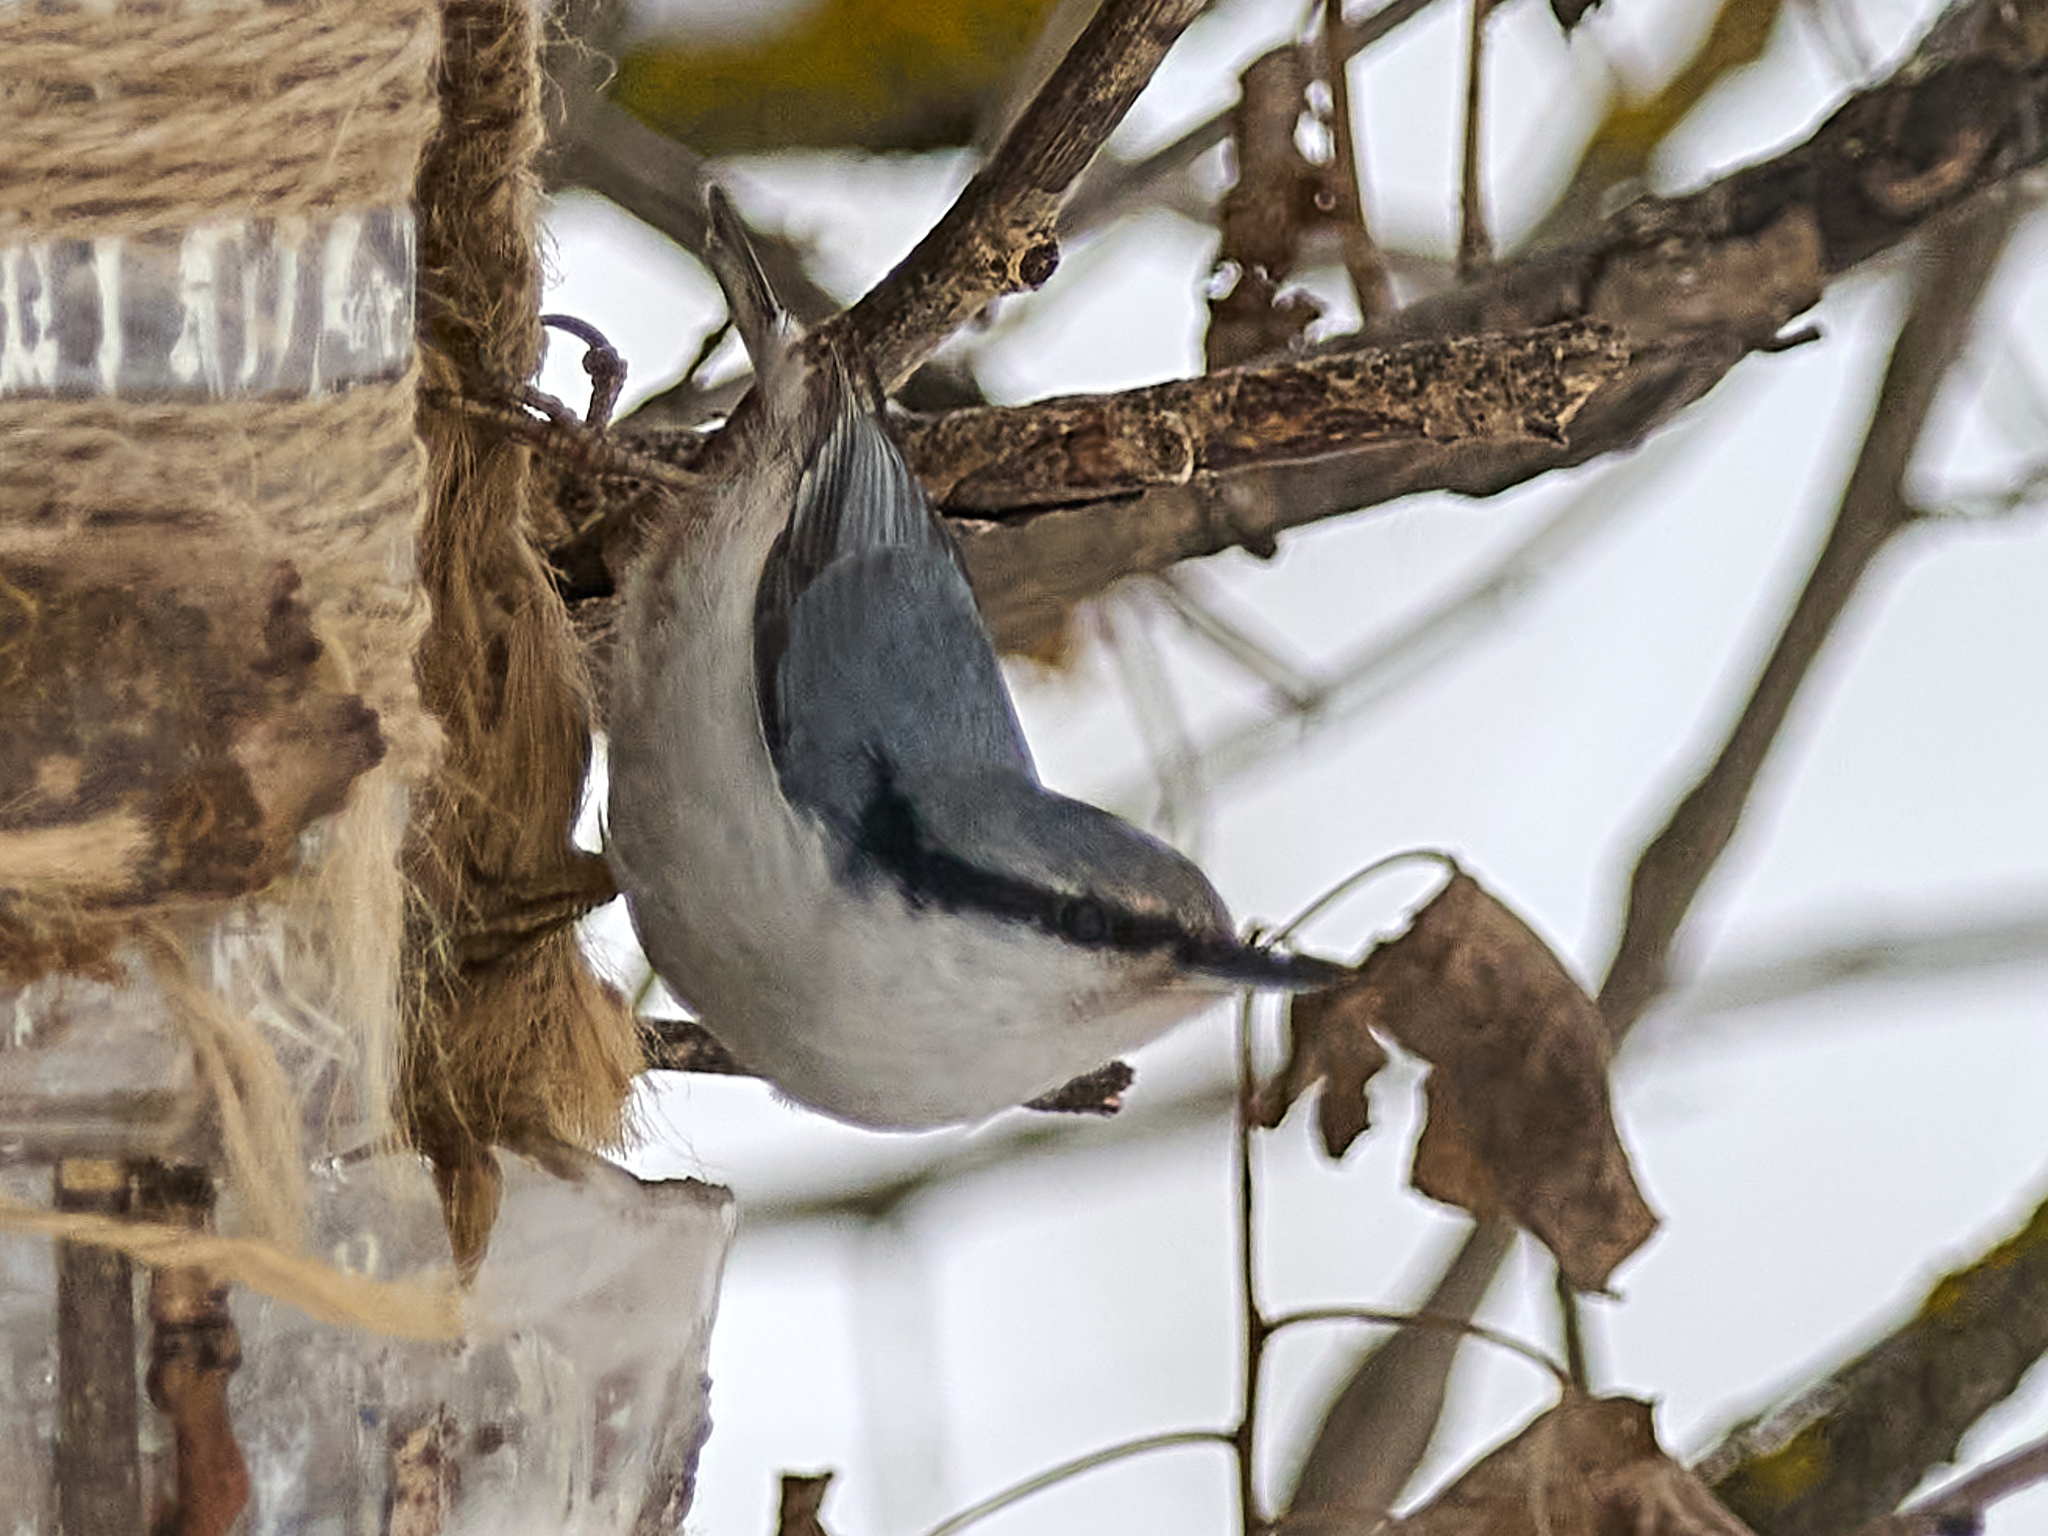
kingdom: Animalia
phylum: Chordata
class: Aves
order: Passeriformes
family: Sittidae
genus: Sitta
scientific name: Sitta europaea
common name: Eurasian nuthatch
